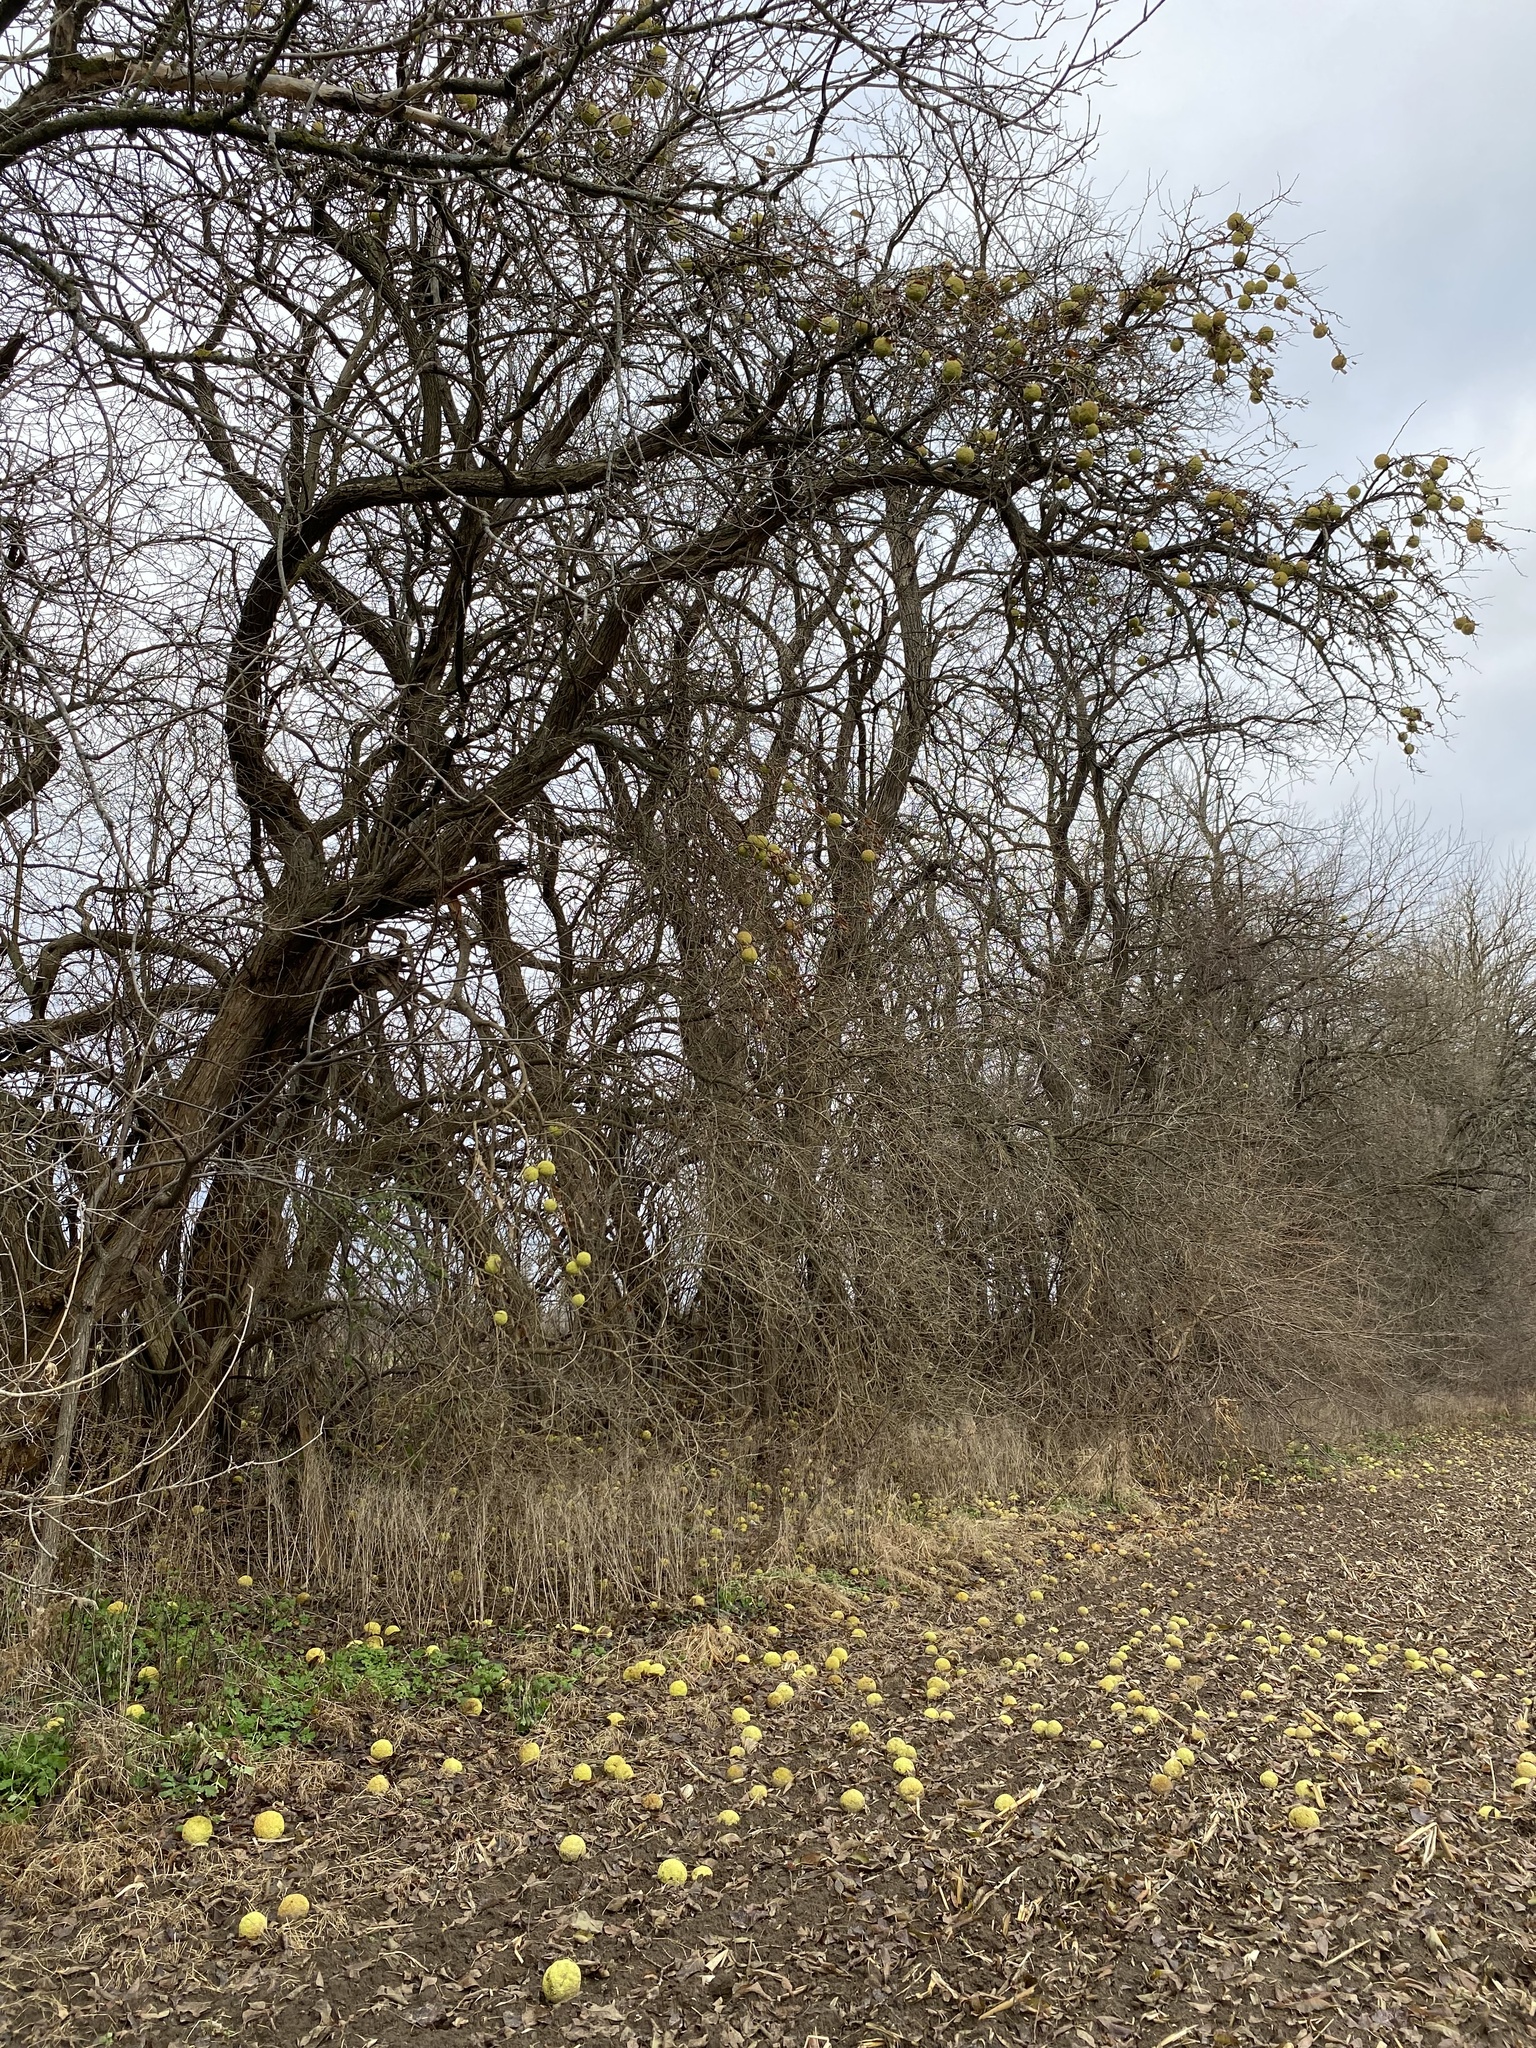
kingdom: Plantae
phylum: Tracheophyta
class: Magnoliopsida
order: Rosales
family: Moraceae
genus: Maclura
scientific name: Maclura pomifera
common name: Osage-orange
